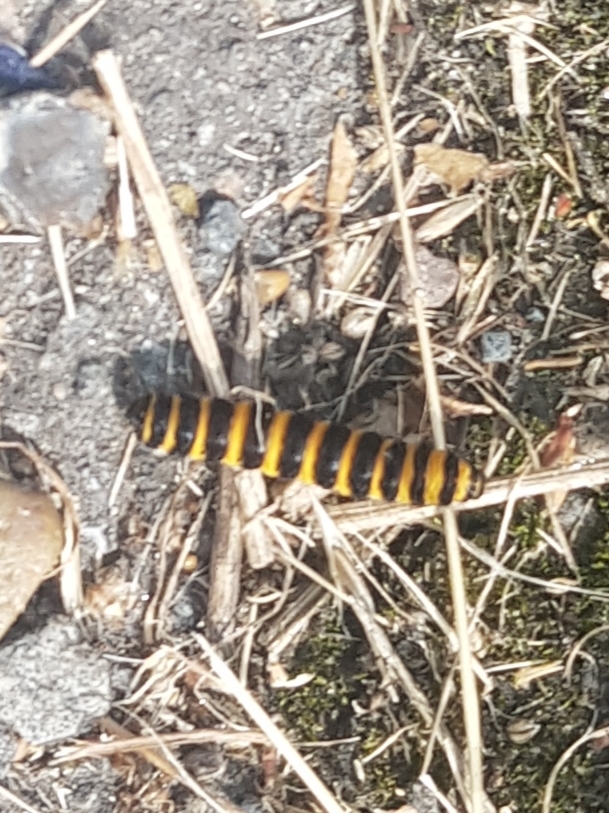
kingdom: Animalia
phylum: Arthropoda
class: Insecta
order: Lepidoptera
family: Erebidae
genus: Tyria
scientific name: Tyria jacobaeae
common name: Cinnabar
